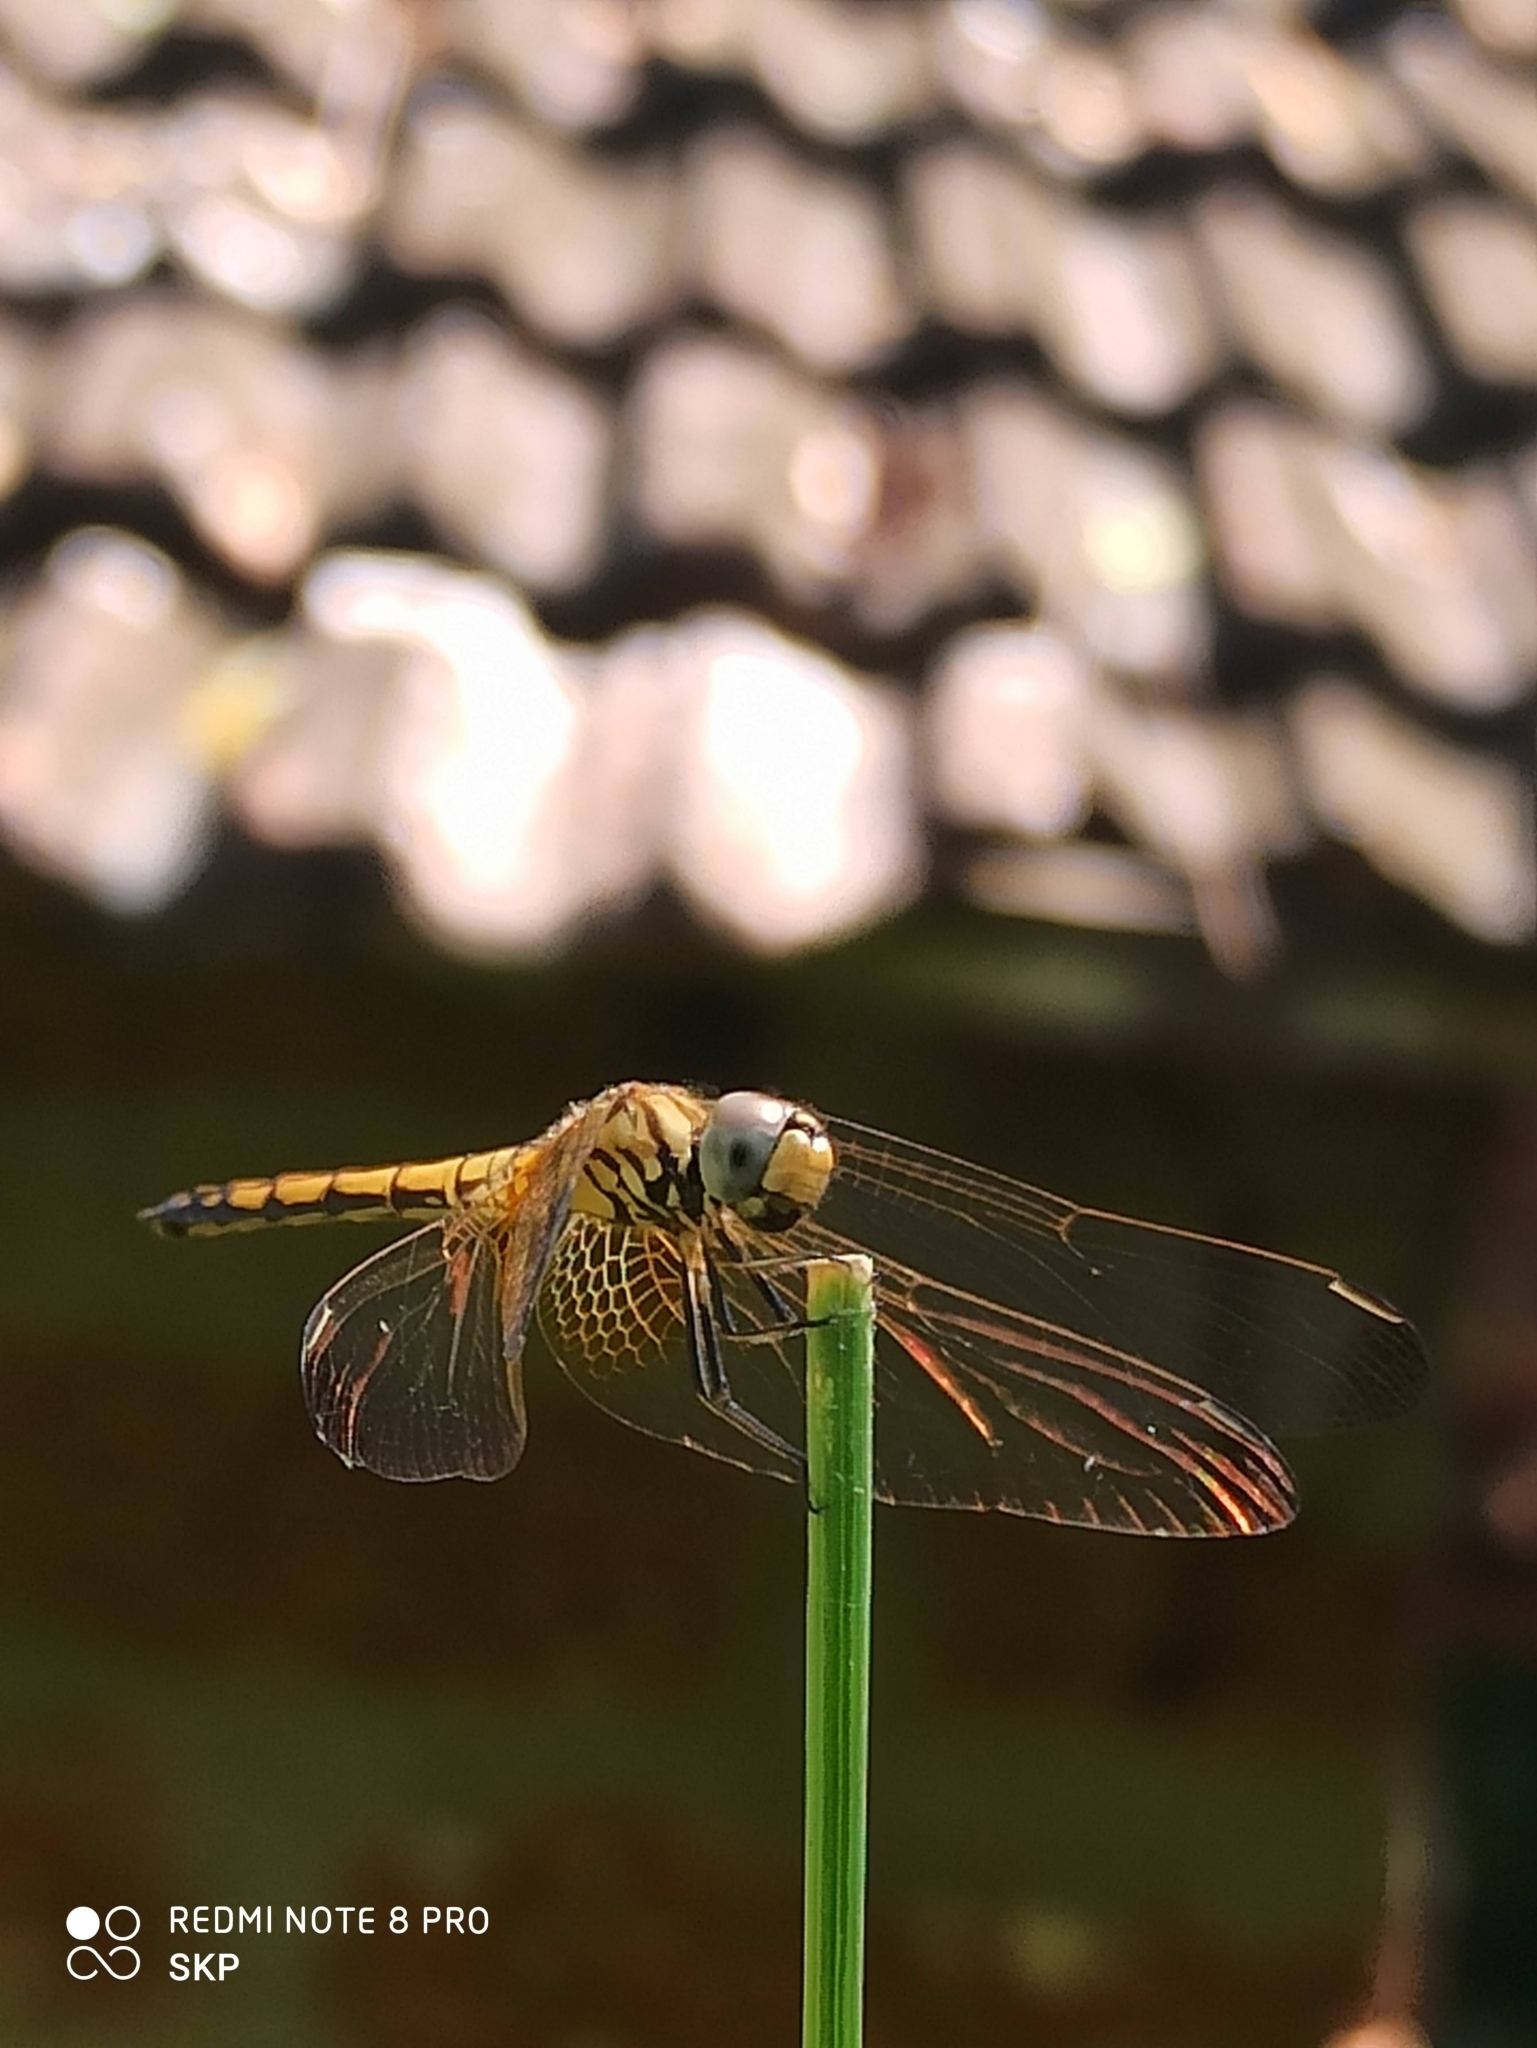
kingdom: Animalia
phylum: Arthropoda
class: Insecta
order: Odonata
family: Libellulidae
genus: Trithemis
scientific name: Trithemis aurora
